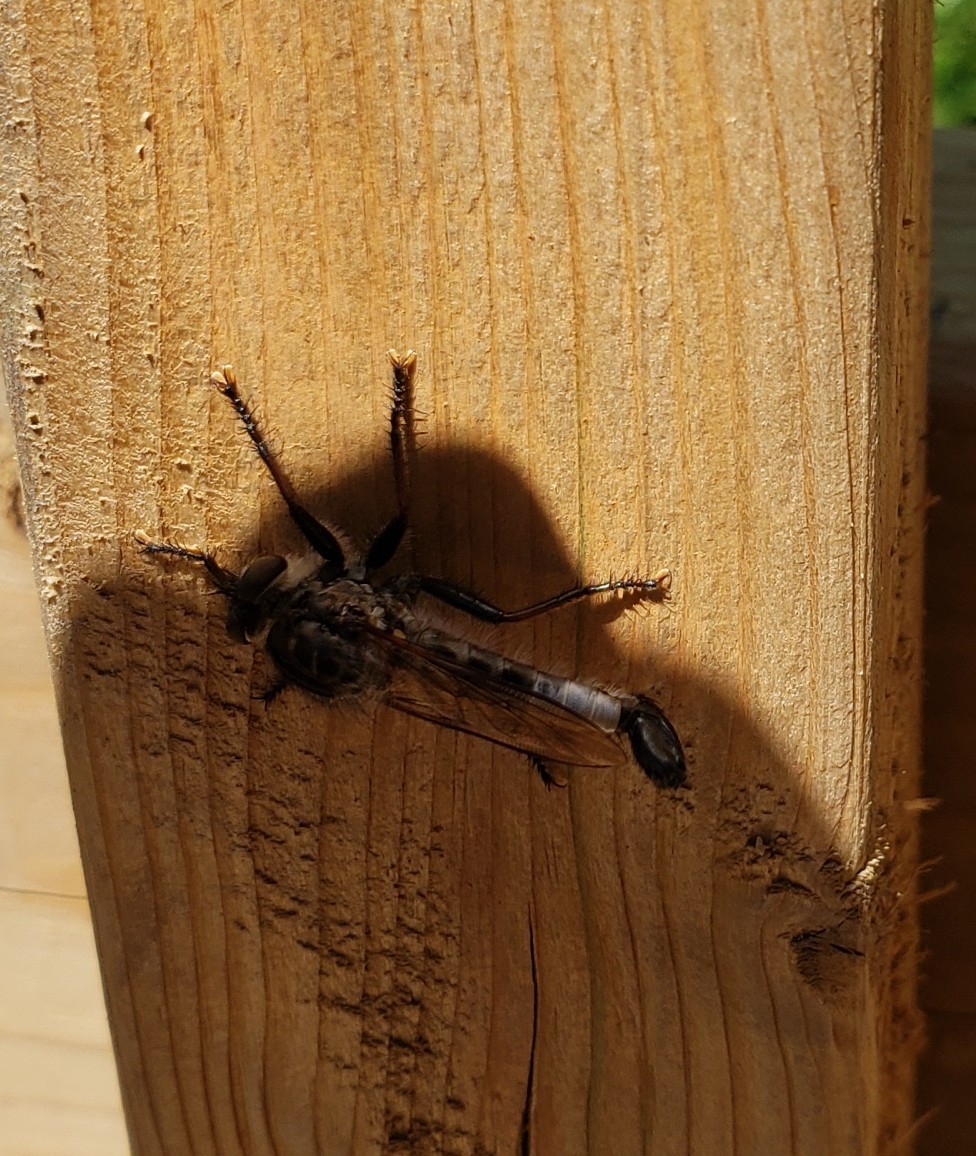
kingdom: Animalia
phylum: Arthropoda
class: Insecta
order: Diptera
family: Asilidae
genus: Efferia
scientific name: Efferia aestuans
